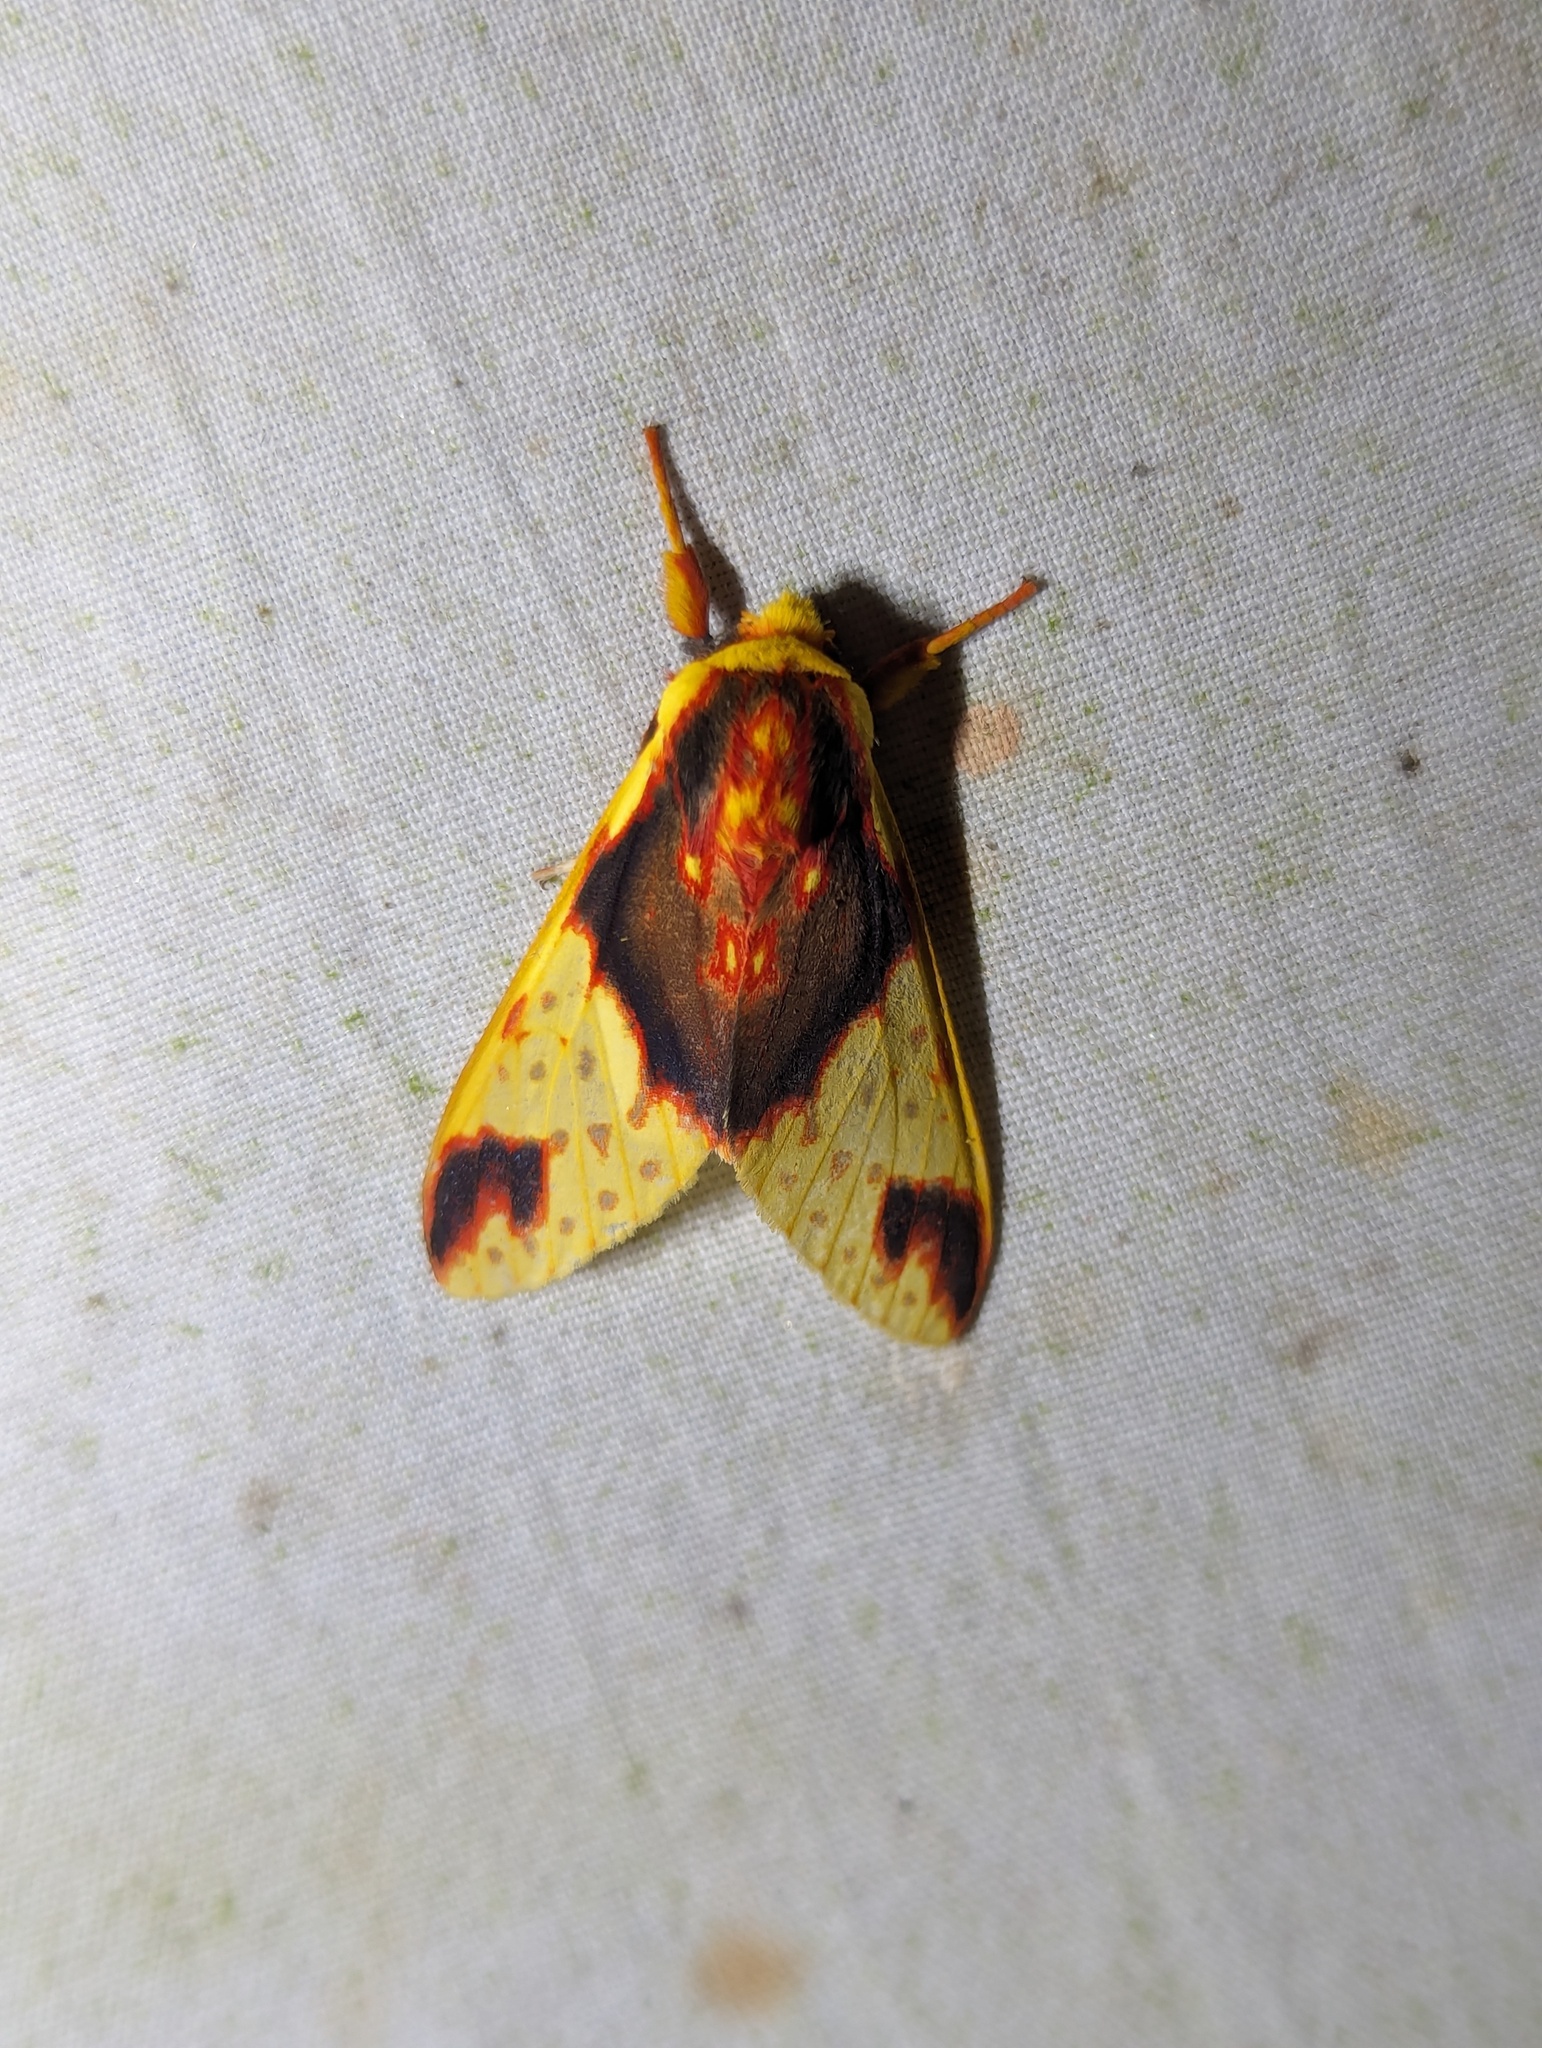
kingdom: Animalia
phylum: Arthropoda
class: Insecta
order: Lepidoptera
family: Erebidae
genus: Symphlebia
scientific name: Symphlebia palmeri
